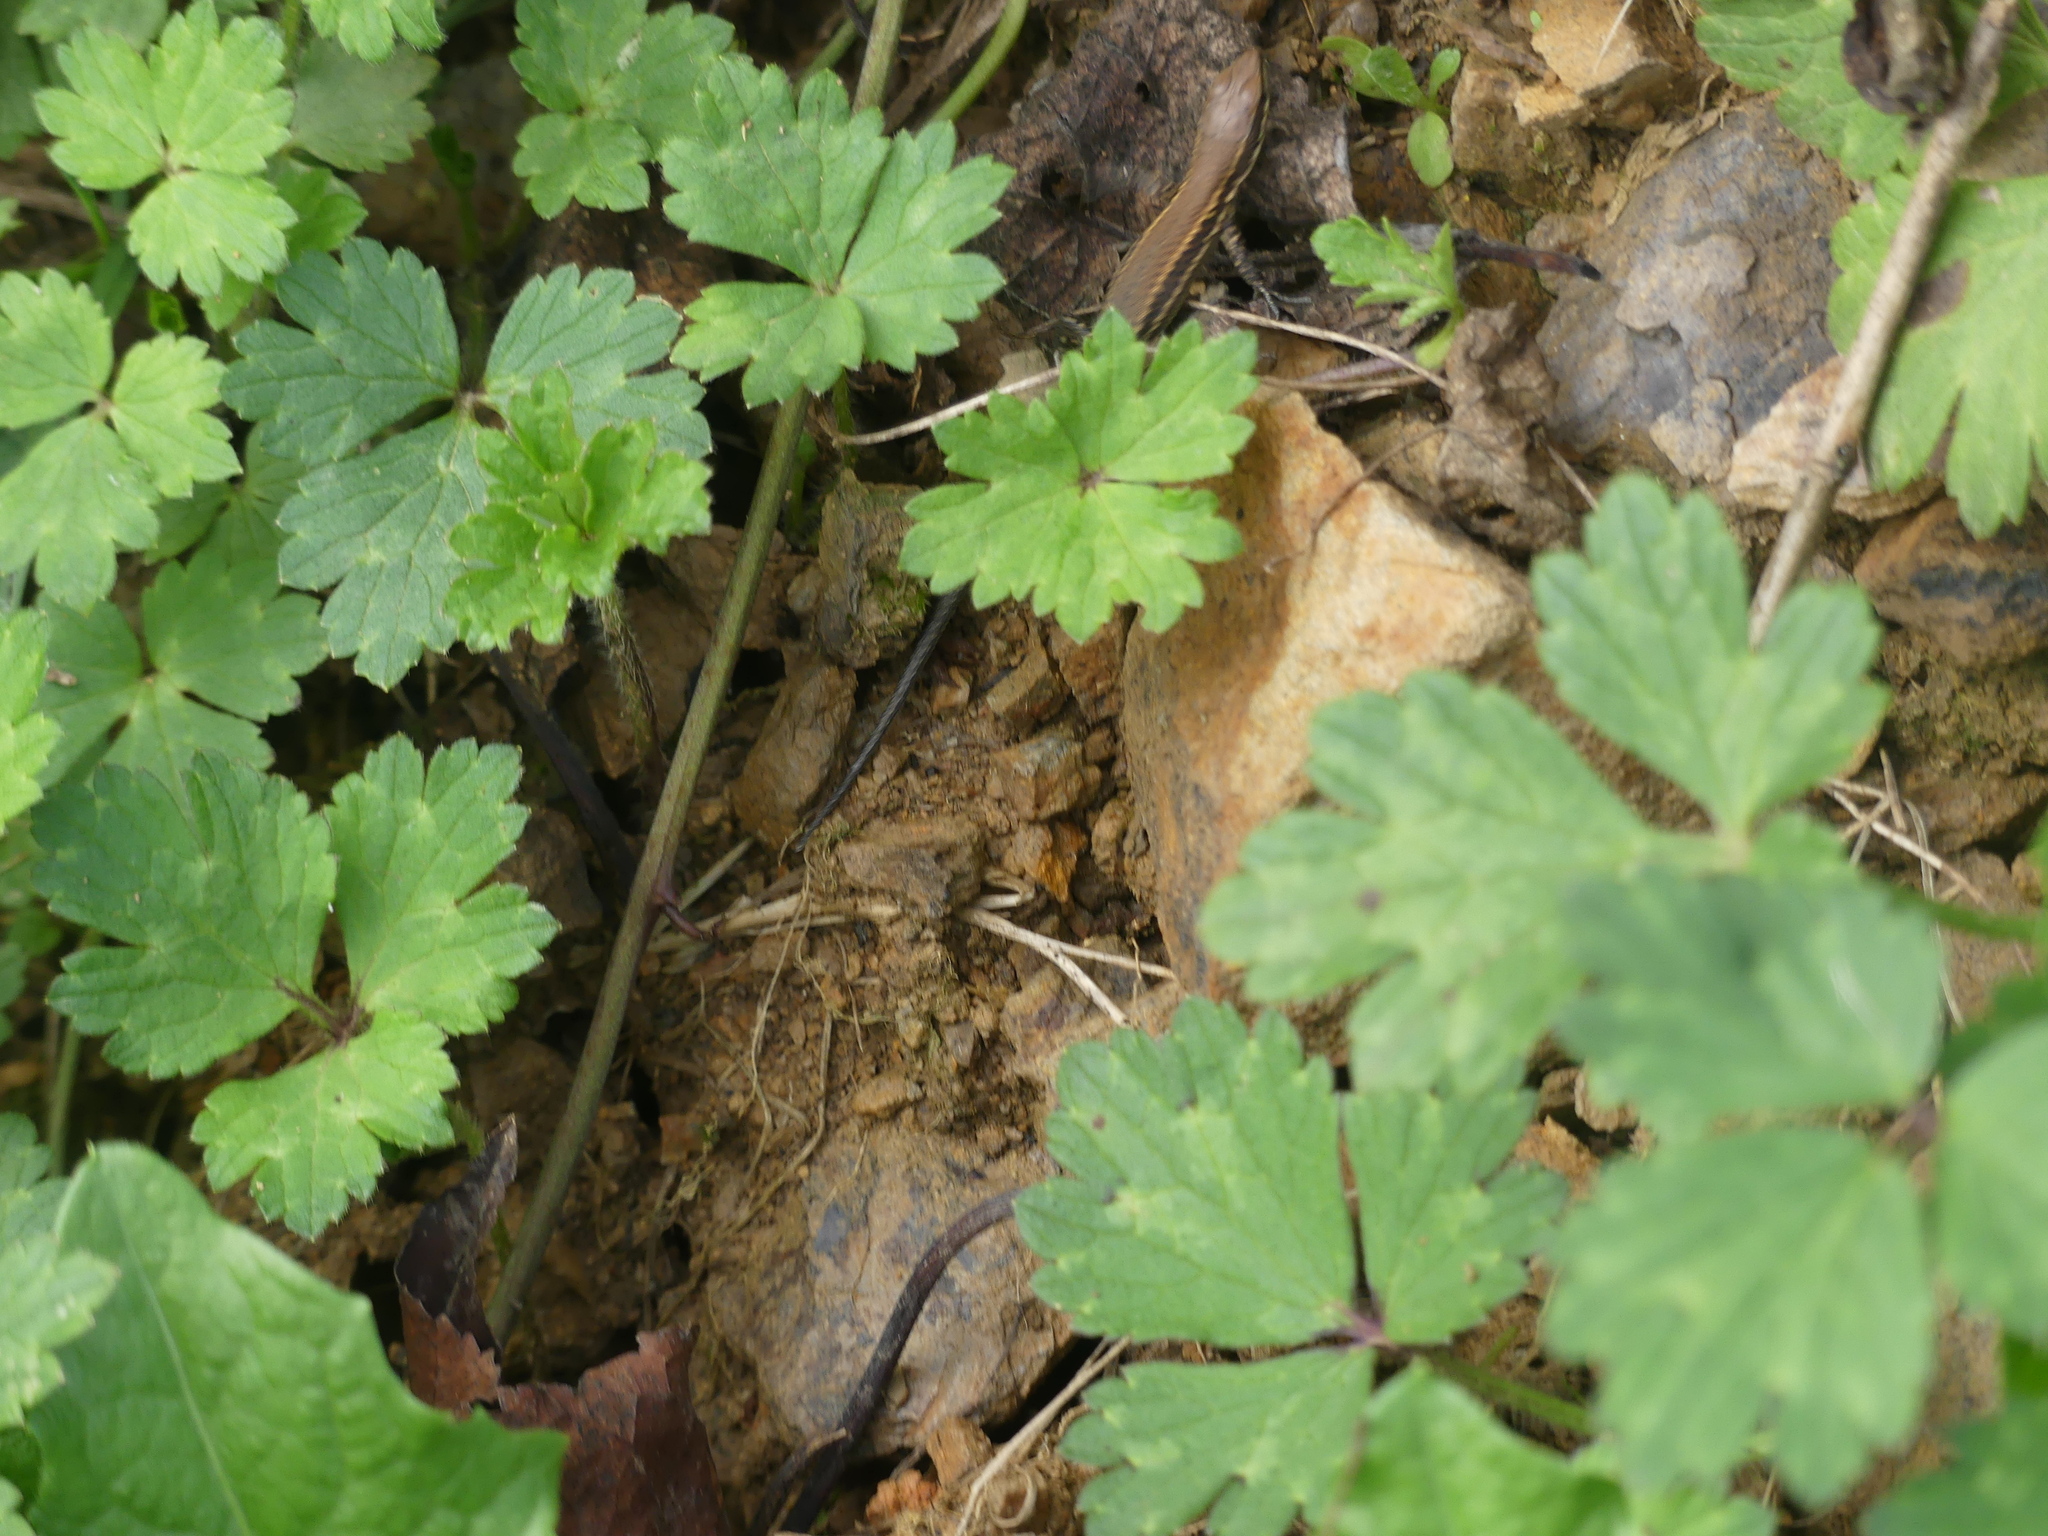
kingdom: Animalia
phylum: Chordata
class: Squamata
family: Lacertidae
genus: Podarcis
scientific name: Podarcis muralis
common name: Common wall lizard
